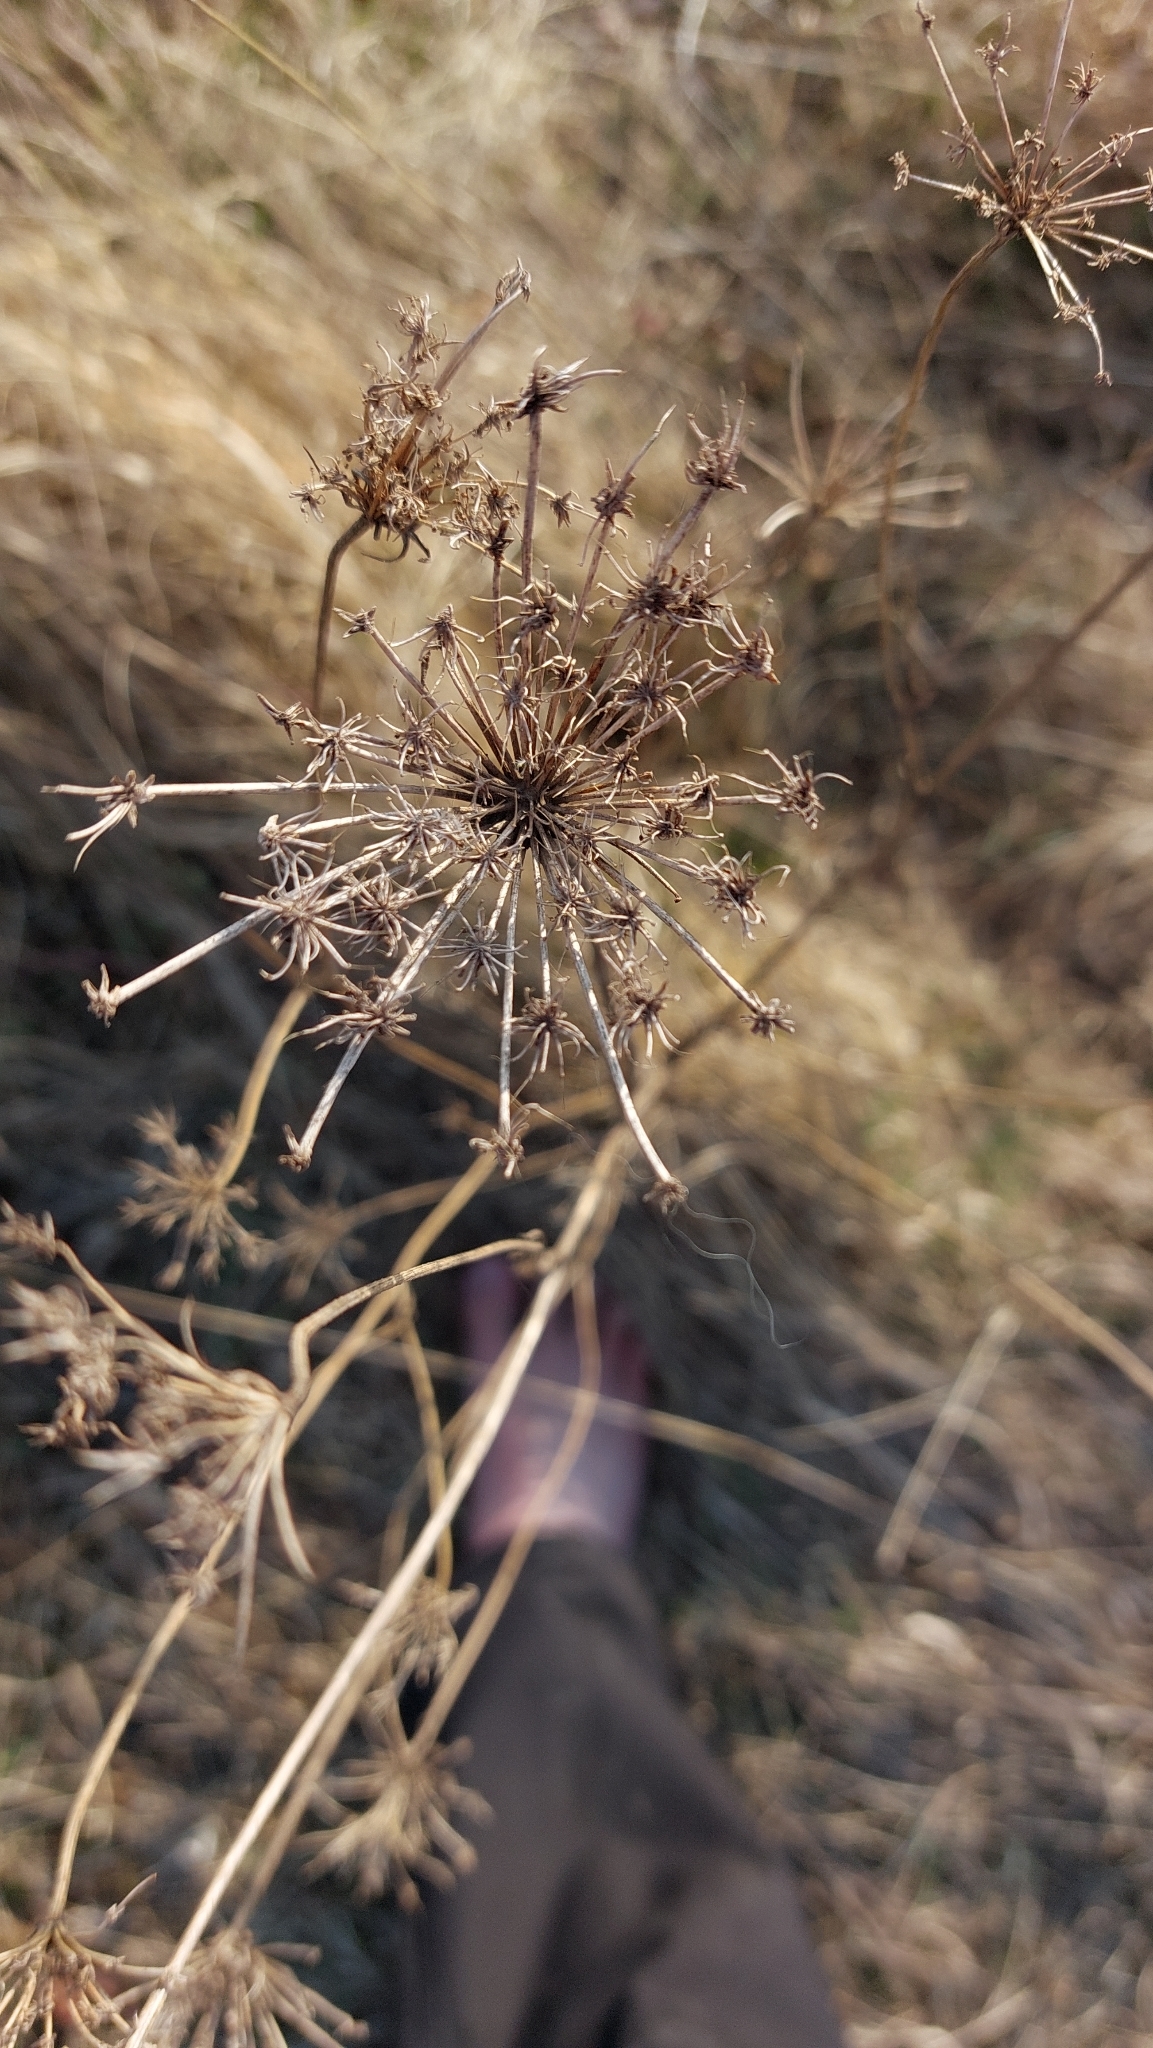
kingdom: Plantae
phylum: Tracheophyta
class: Magnoliopsida
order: Apiales
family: Apiaceae
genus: Daucus
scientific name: Daucus carota
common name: Wild carrot
